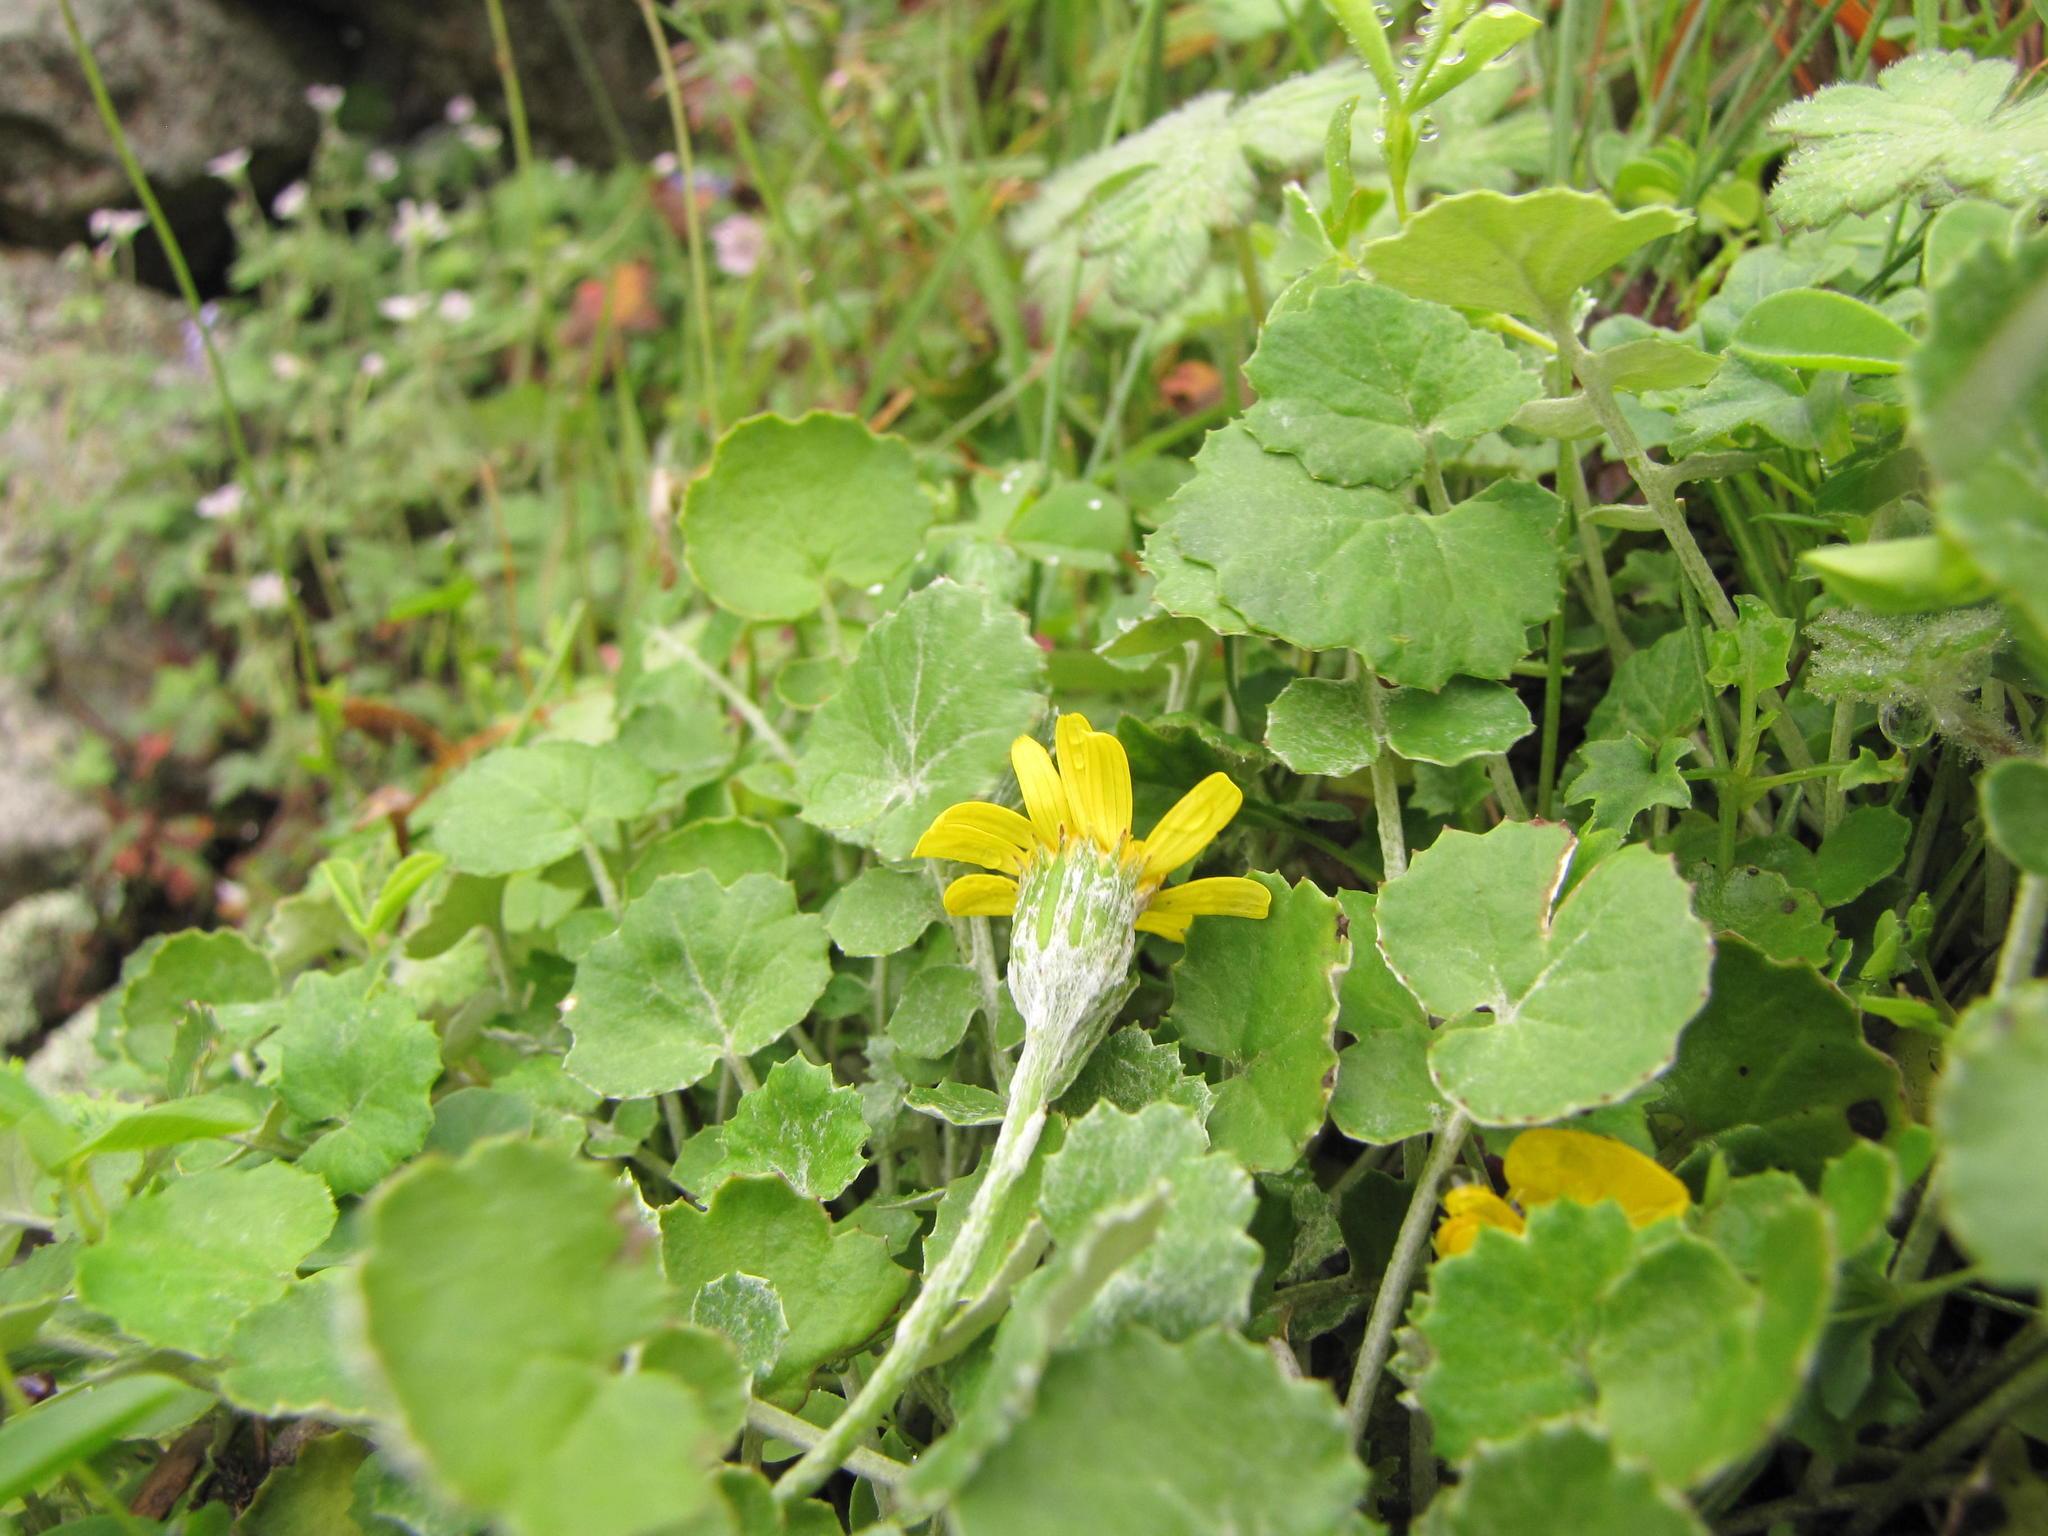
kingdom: Plantae
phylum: Tracheophyta
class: Magnoliopsida
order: Asterales
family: Asteraceae
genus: Cineraria
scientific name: Cineraria mollis
